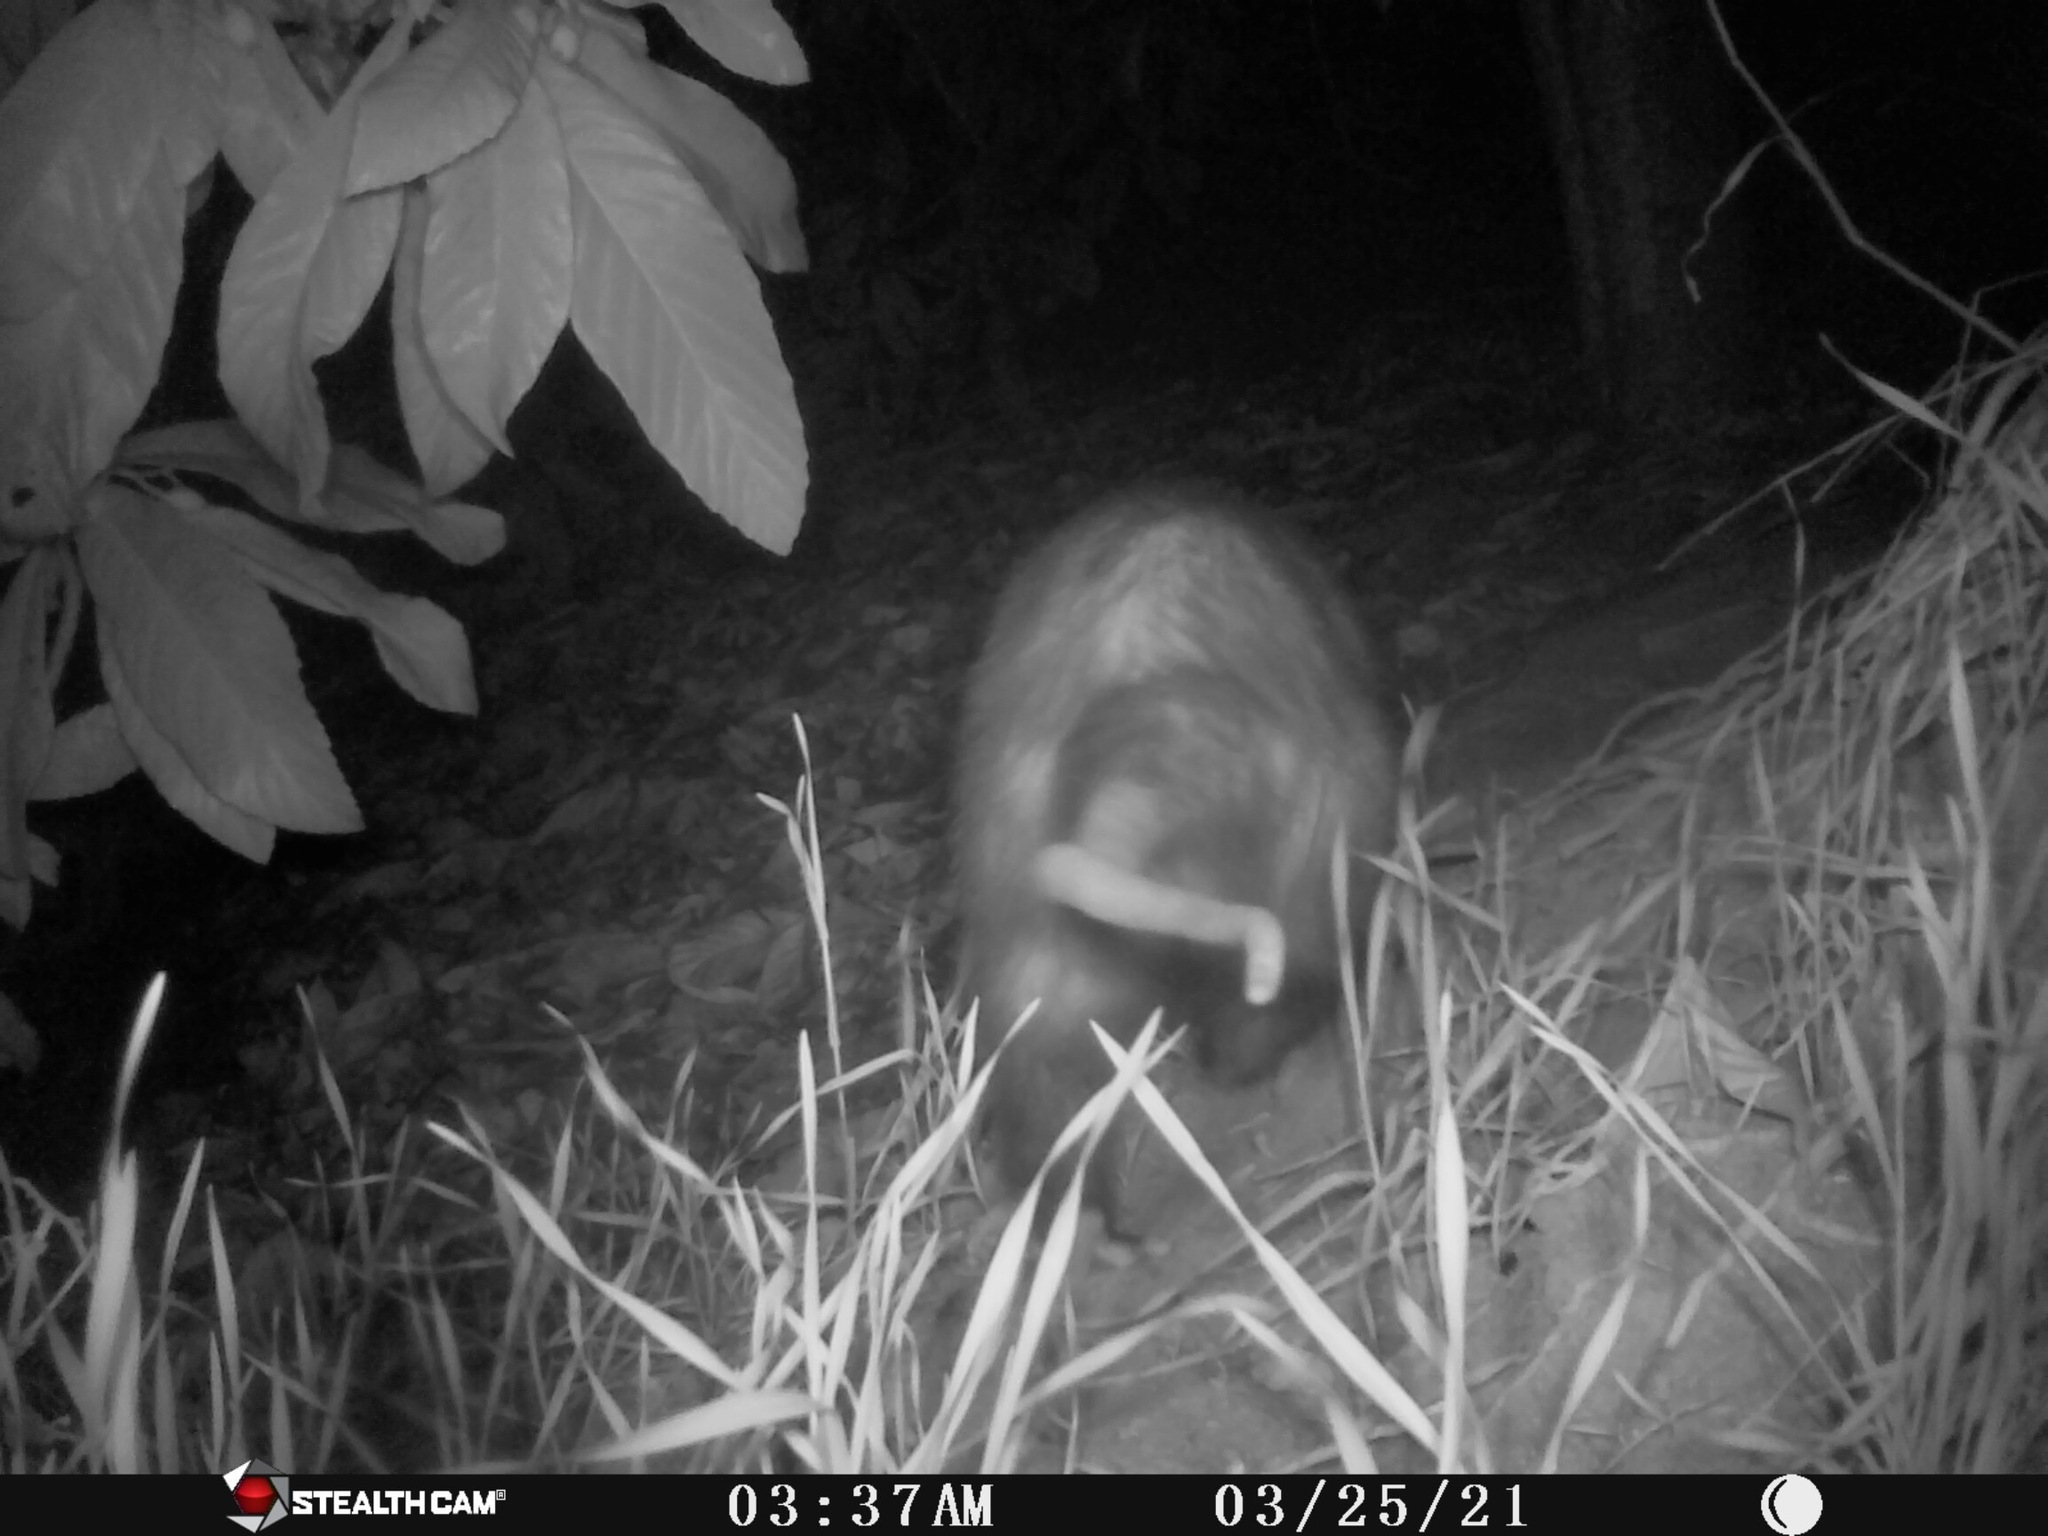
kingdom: Animalia
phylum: Chordata
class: Mammalia
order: Didelphimorphia
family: Didelphidae
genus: Didelphis
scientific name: Didelphis virginiana
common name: Virginia opossum
